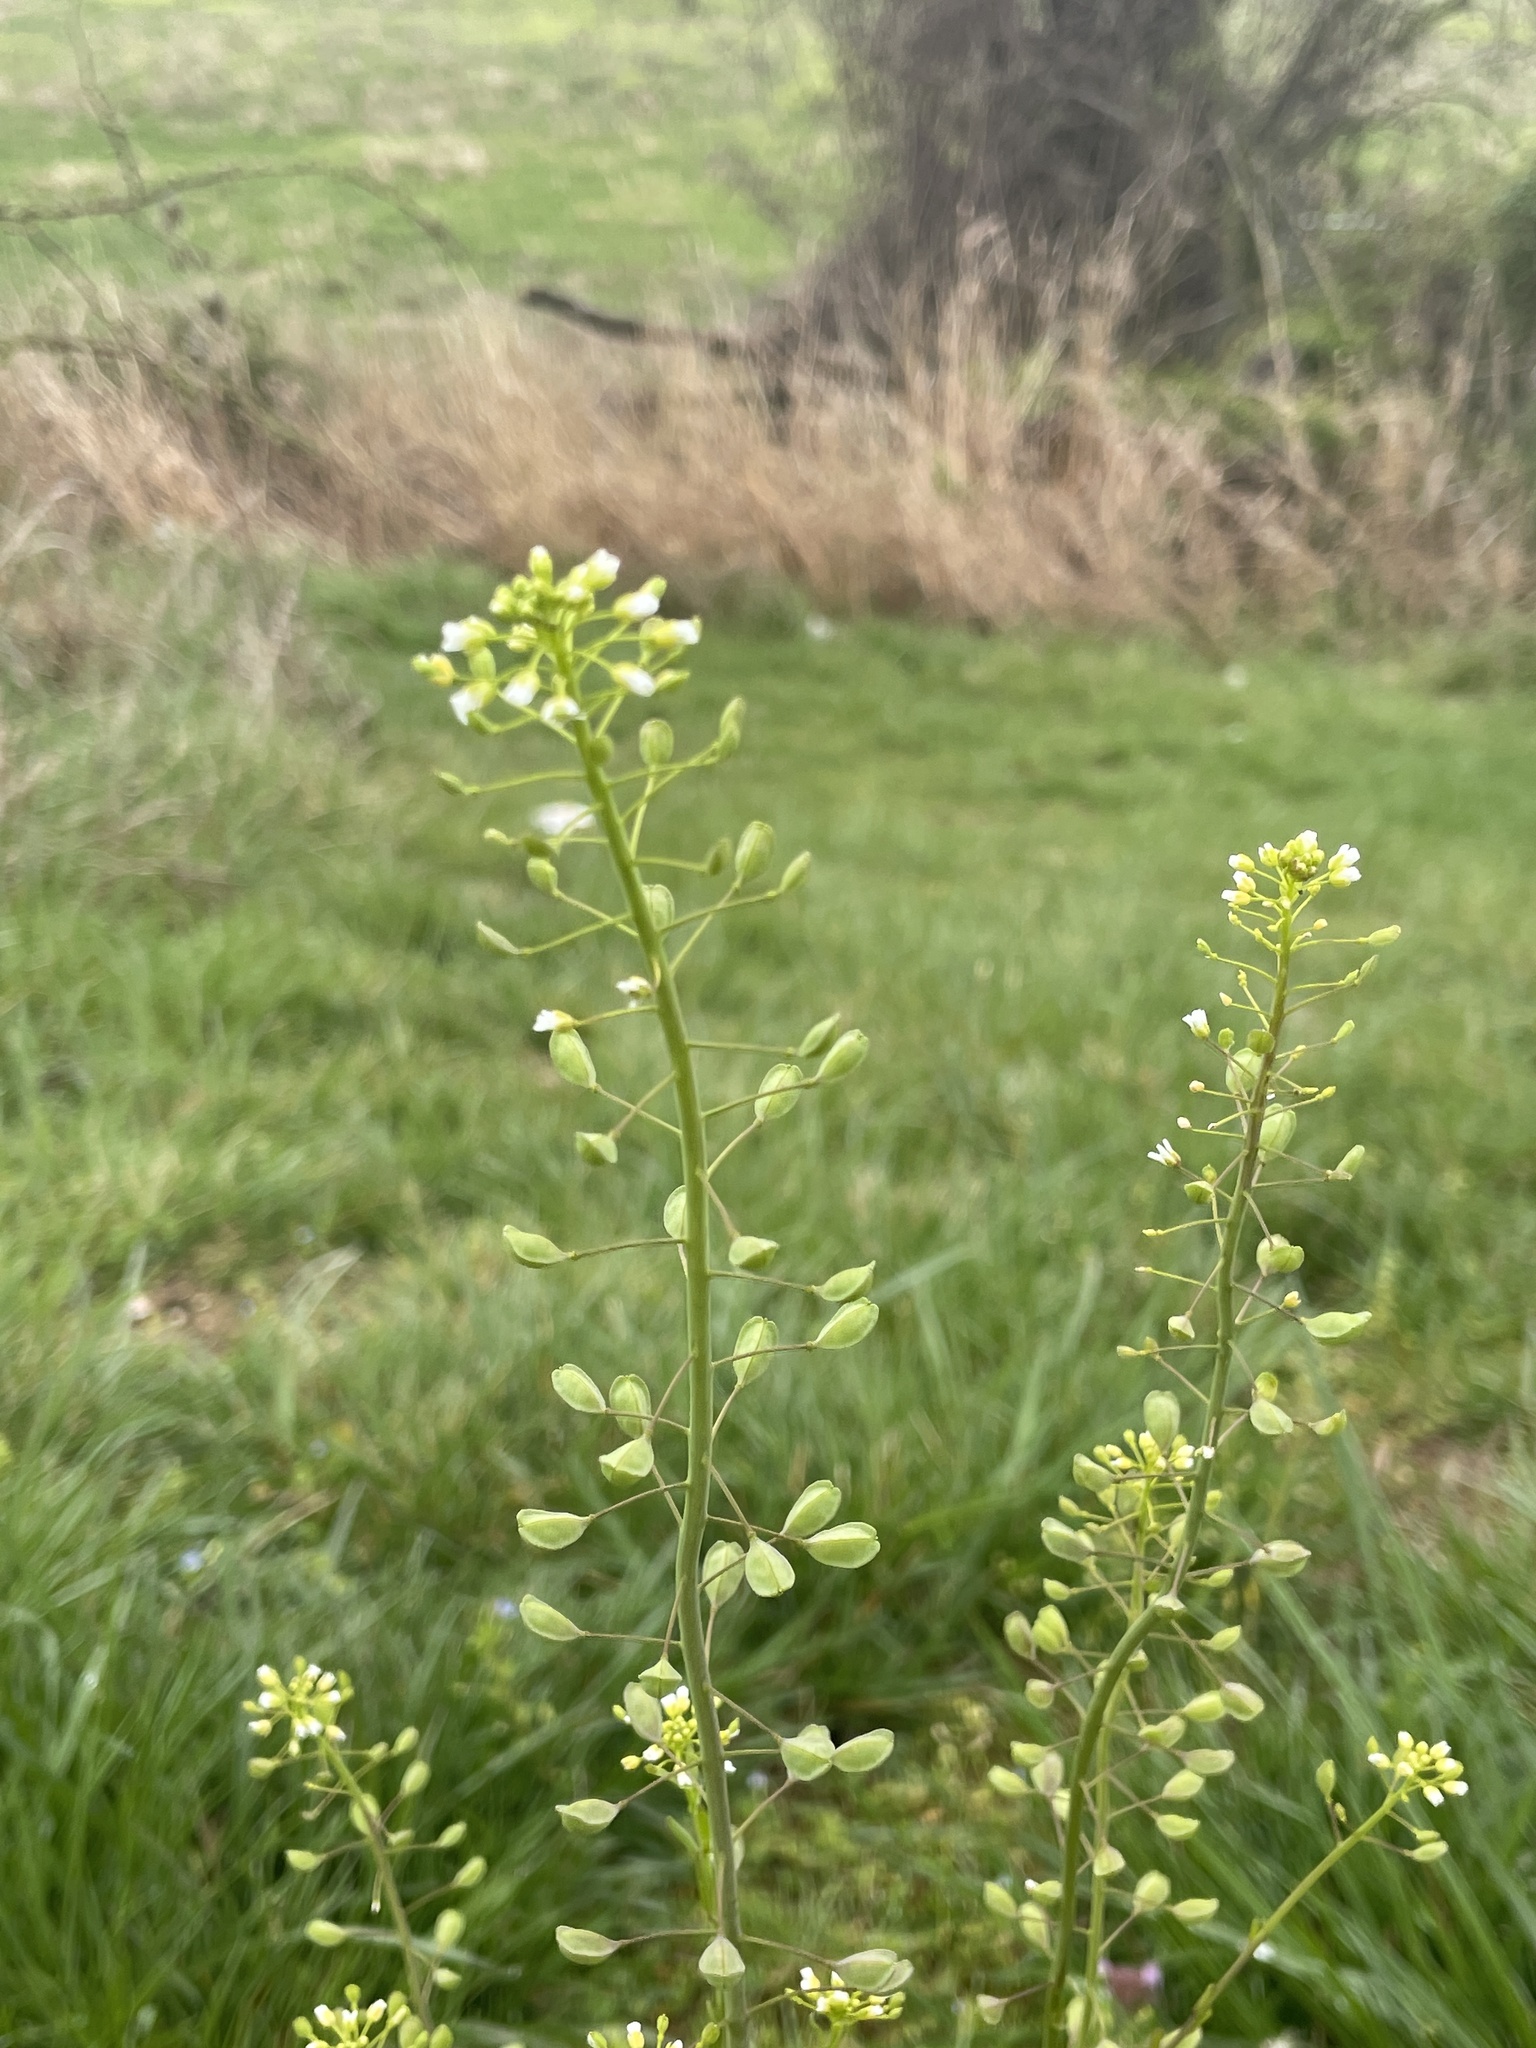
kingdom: Plantae
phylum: Tracheophyta
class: Magnoliopsida
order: Brassicales
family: Brassicaceae
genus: Mummenhoffia
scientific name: Mummenhoffia alliacea
